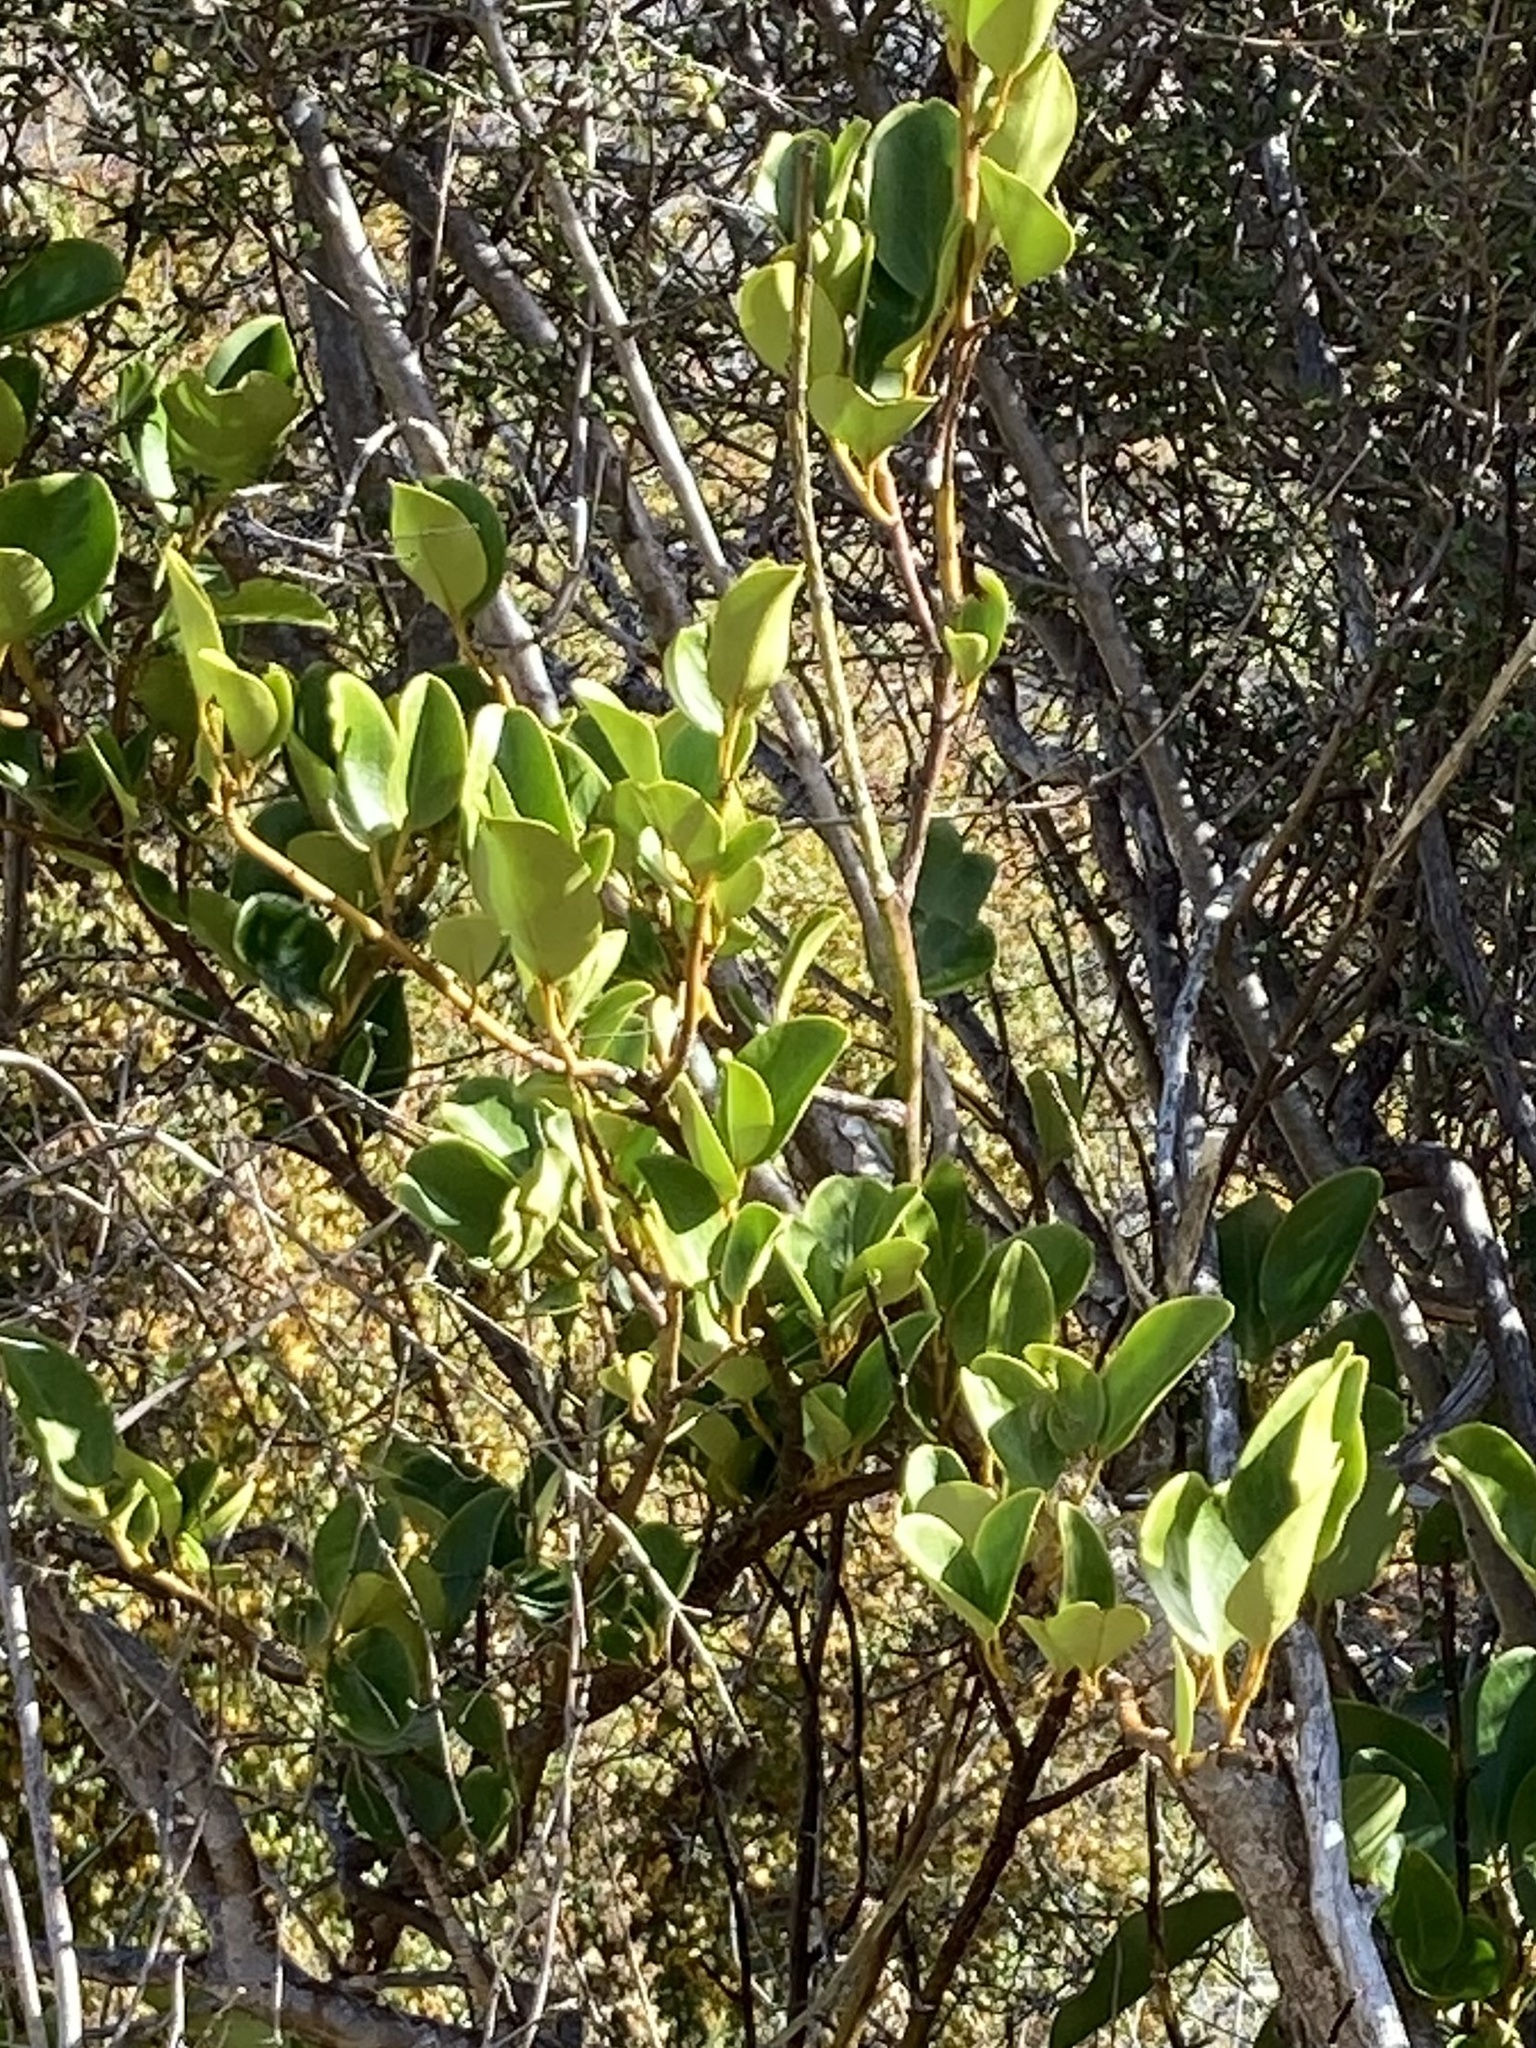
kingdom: Plantae
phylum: Tracheophyta
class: Magnoliopsida
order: Apiales
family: Griseliniaceae
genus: Griselinia
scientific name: Griselinia littoralis
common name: New zealand broadleaf
